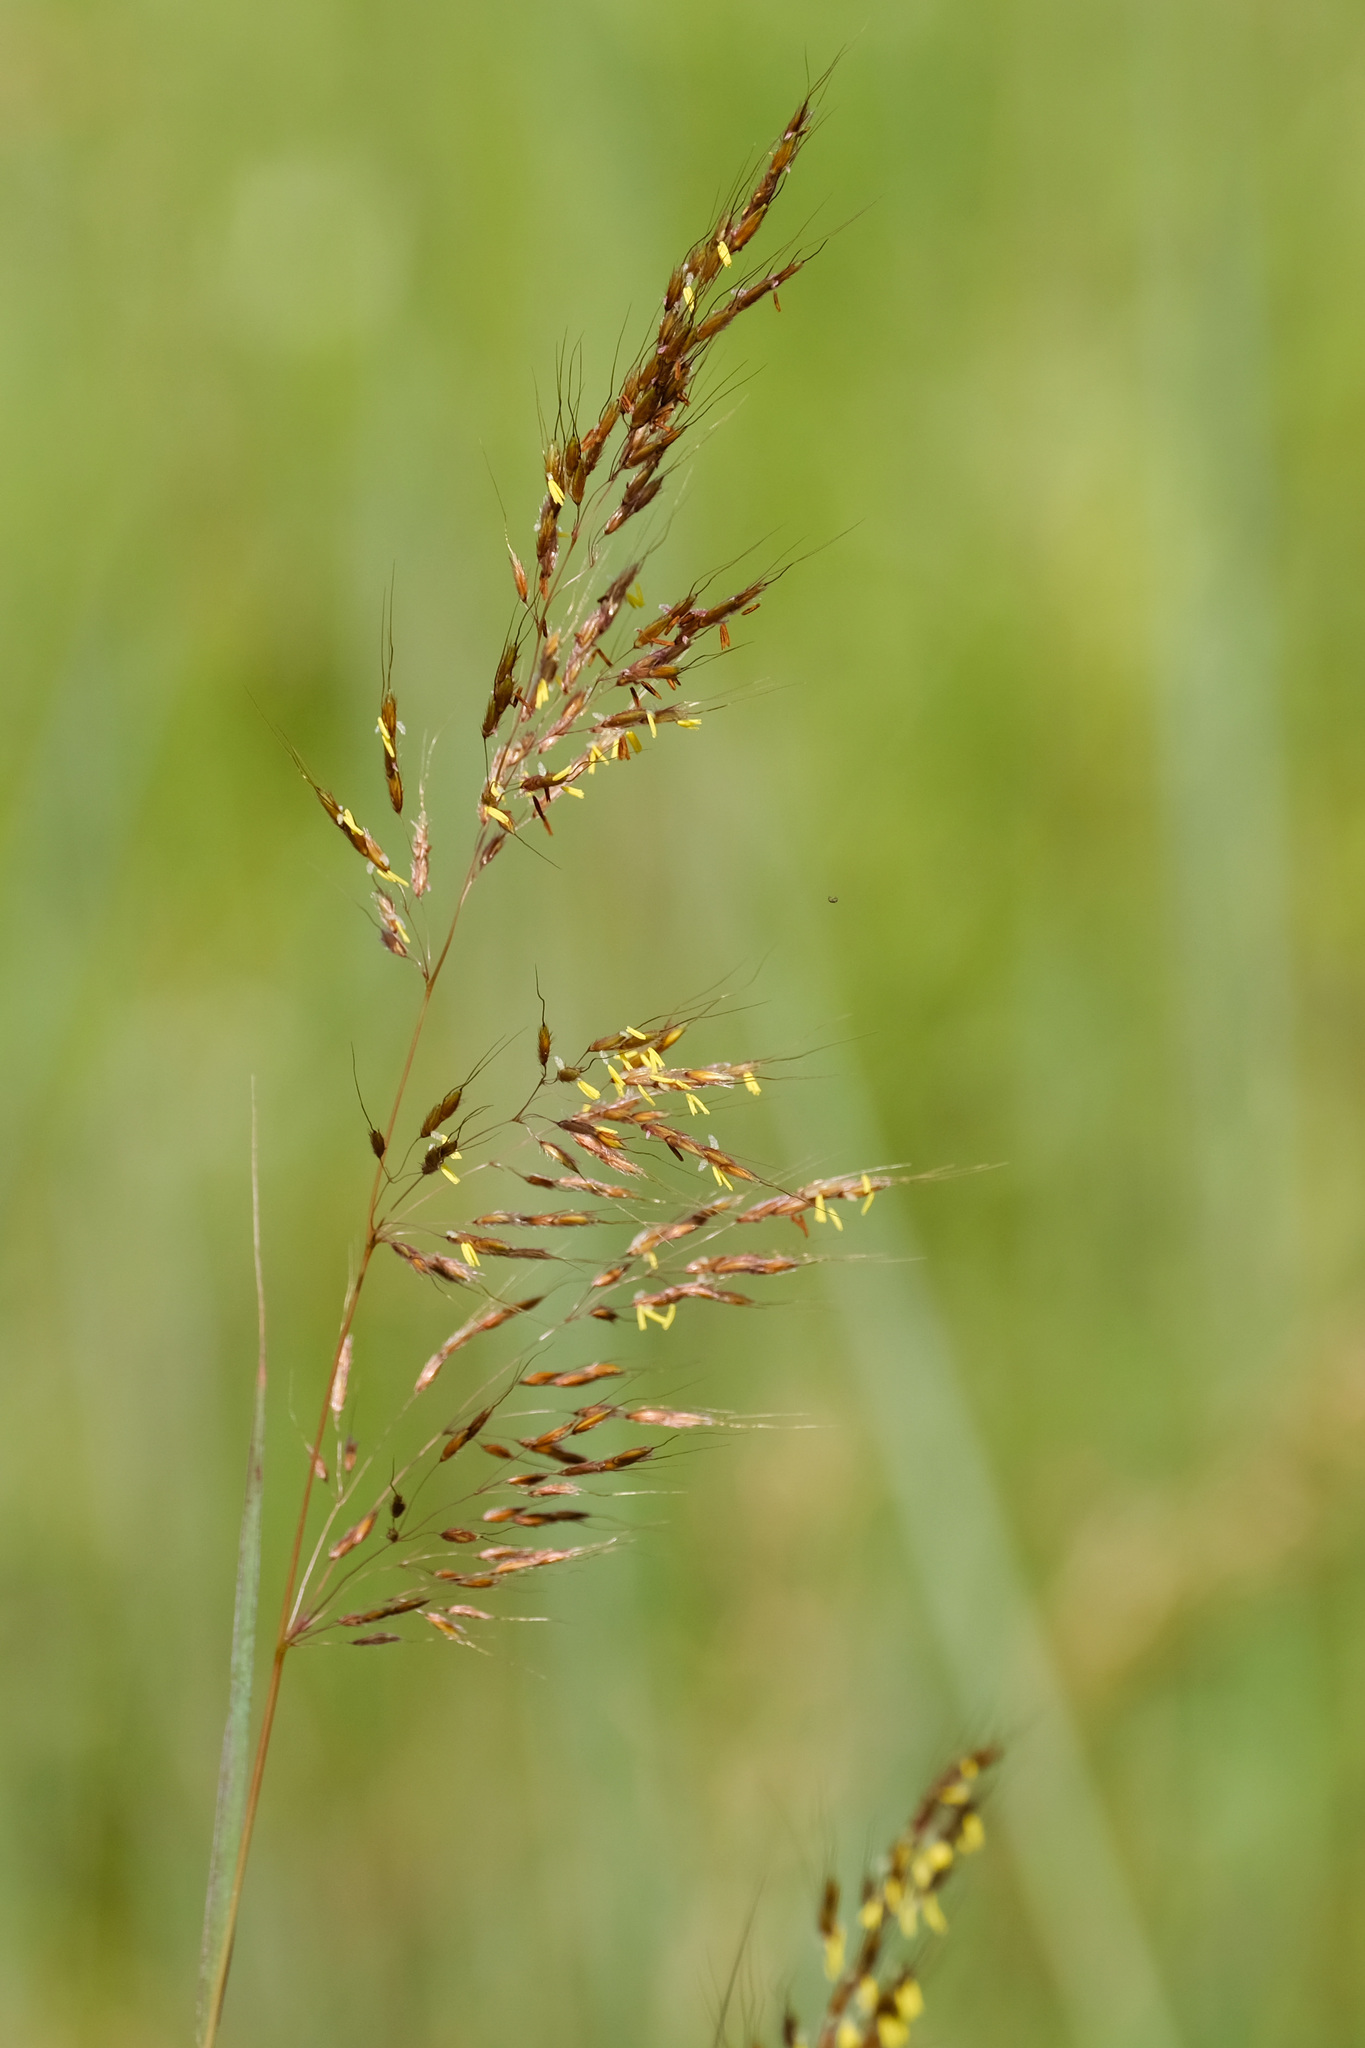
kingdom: Plantae
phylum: Tracheophyta
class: Liliopsida
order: Poales
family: Poaceae
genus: Sorghastrum
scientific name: Sorghastrum nutans
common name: Indian grass
